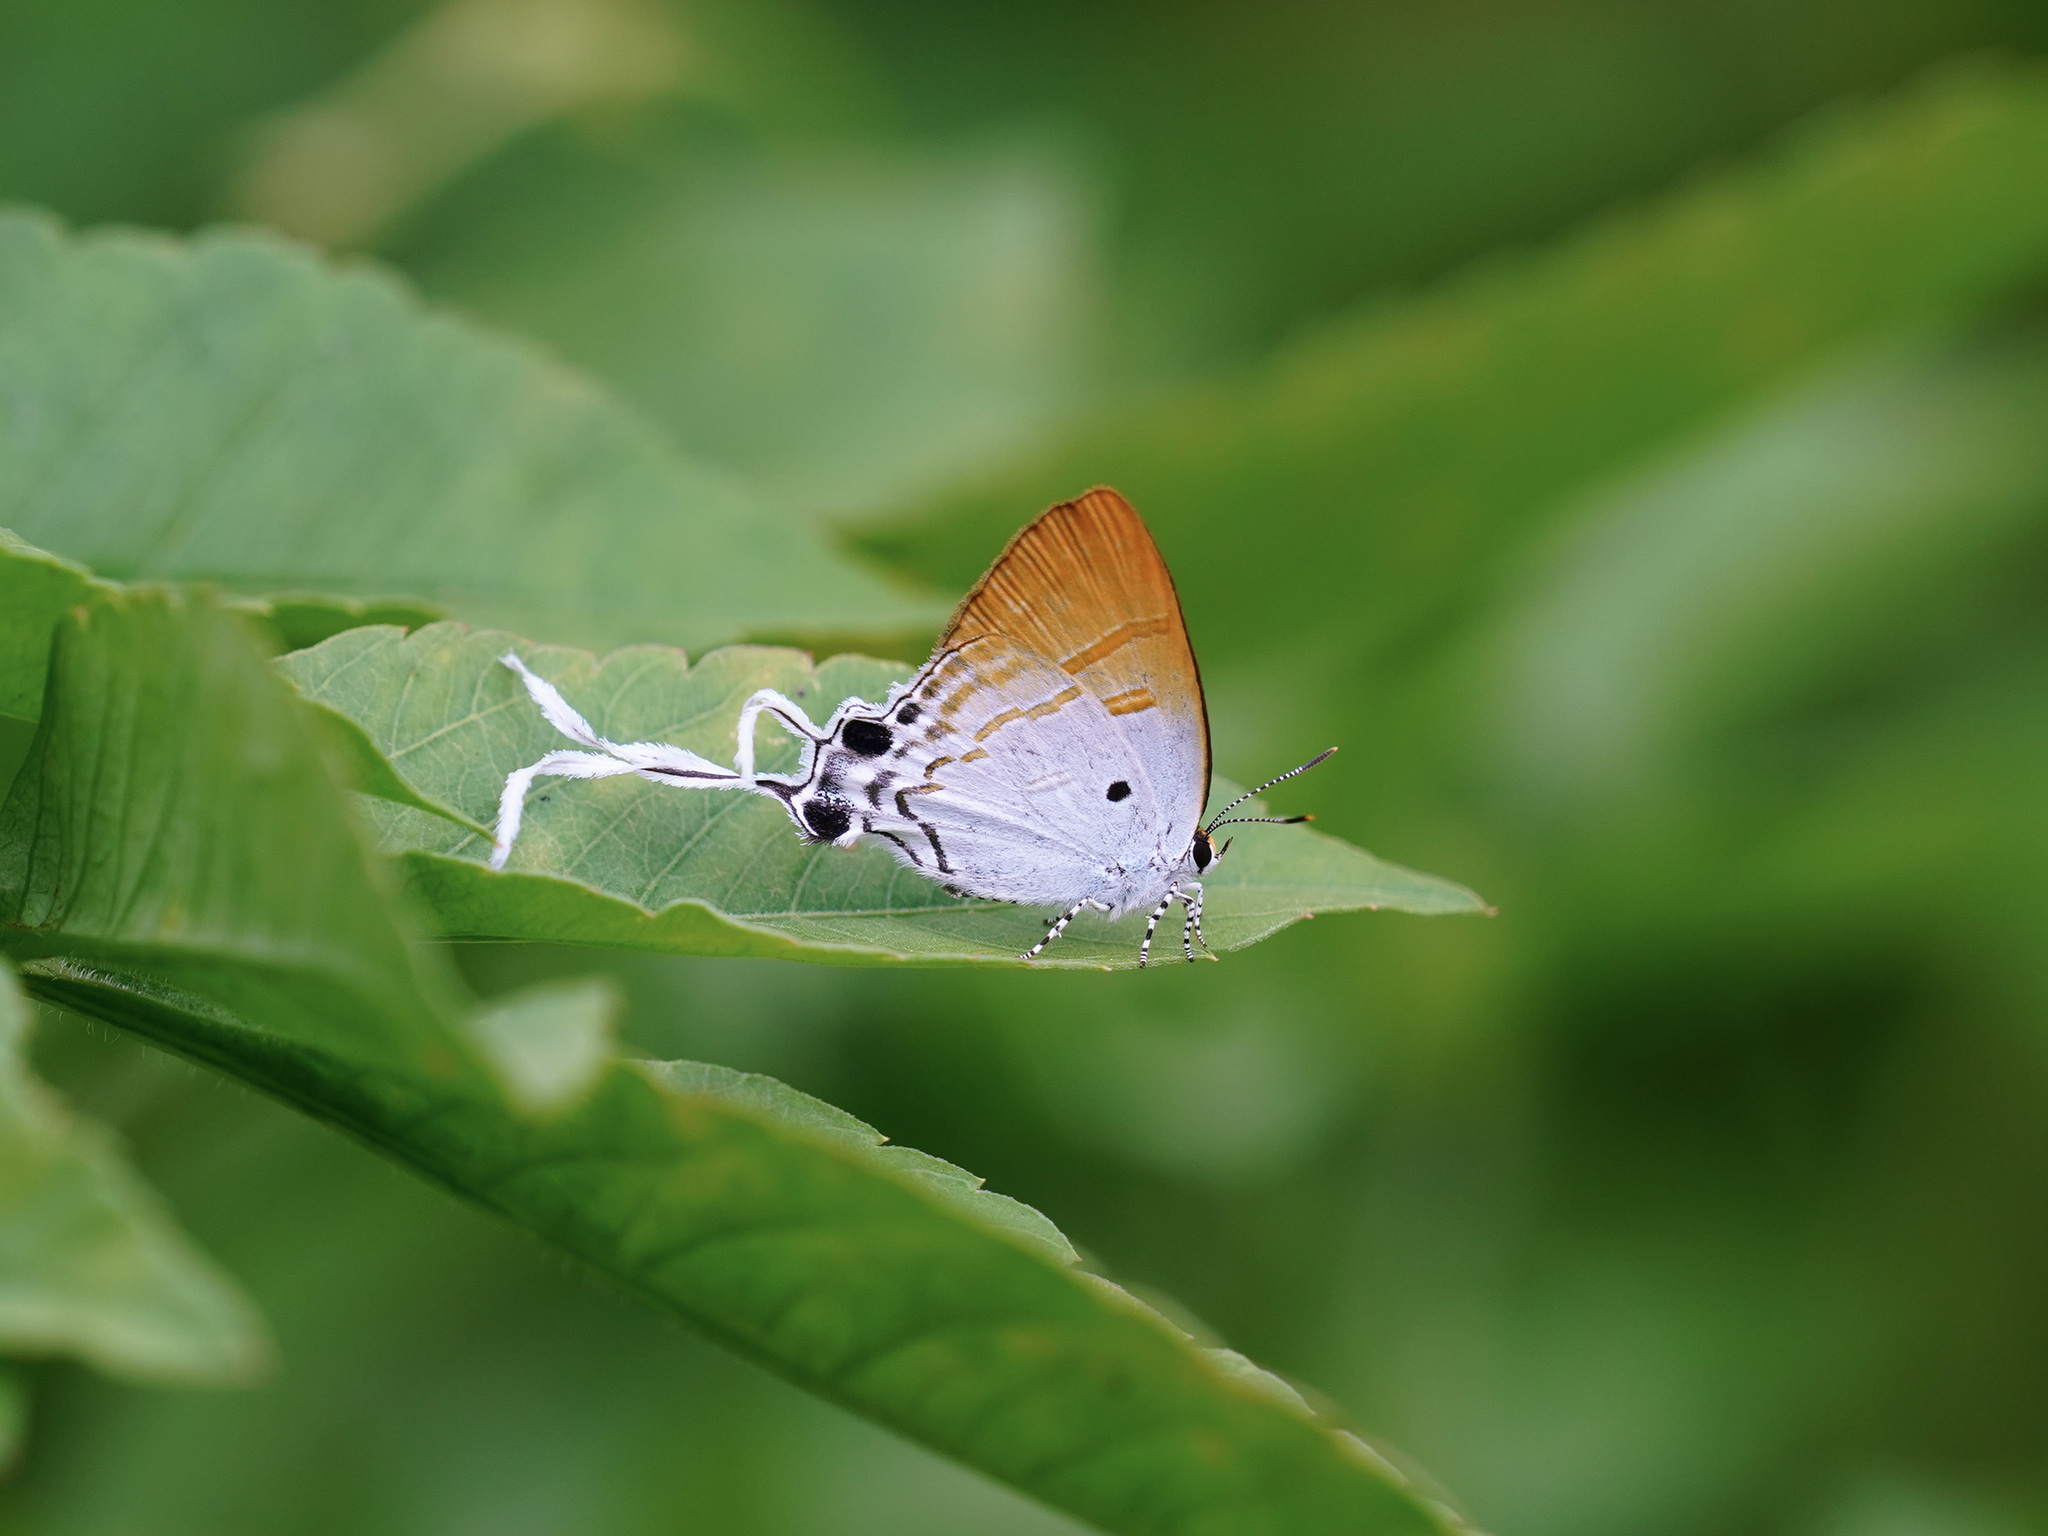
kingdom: Animalia
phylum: Arthropoda
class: Insecta
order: Lepidoptera
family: Lycaenidae
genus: Zeltus
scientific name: Zeltus amasa
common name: Fluffy tit
